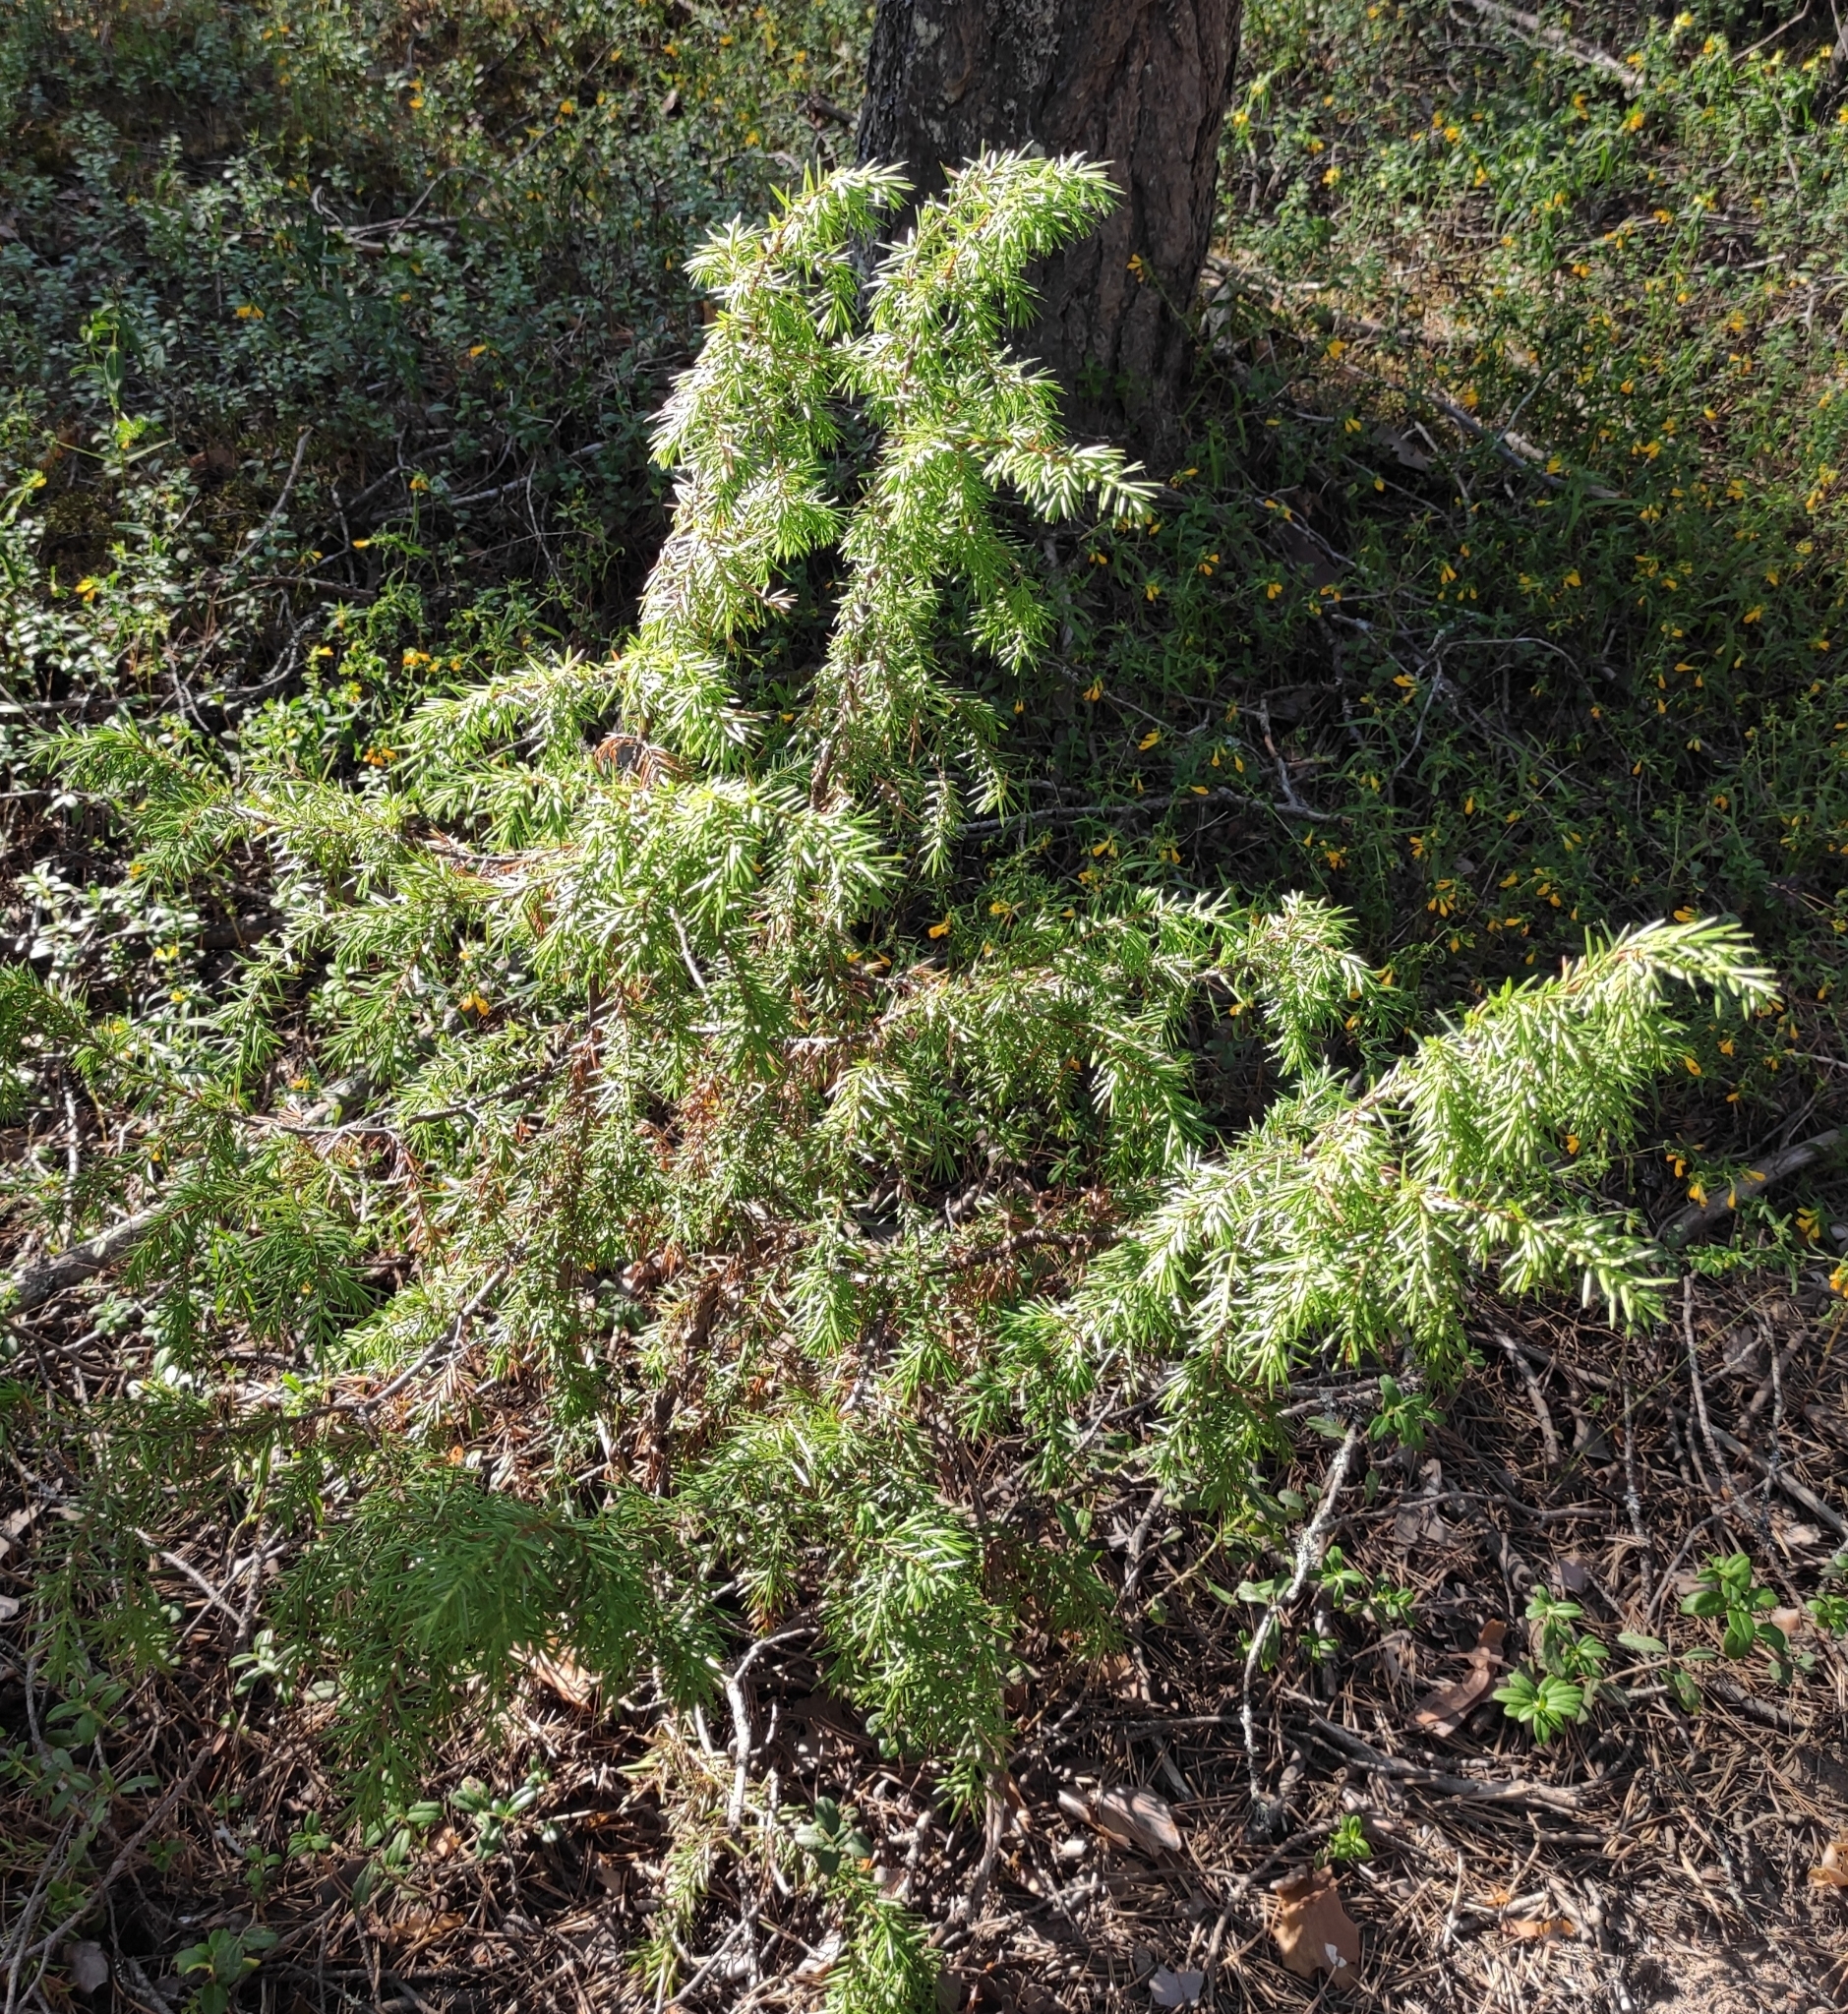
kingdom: Plantae
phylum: Tracheophyta
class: Pinopsida
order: Pinales
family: Cupressaceae
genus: Juniperus
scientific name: Juniperus communis
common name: Common juniper
